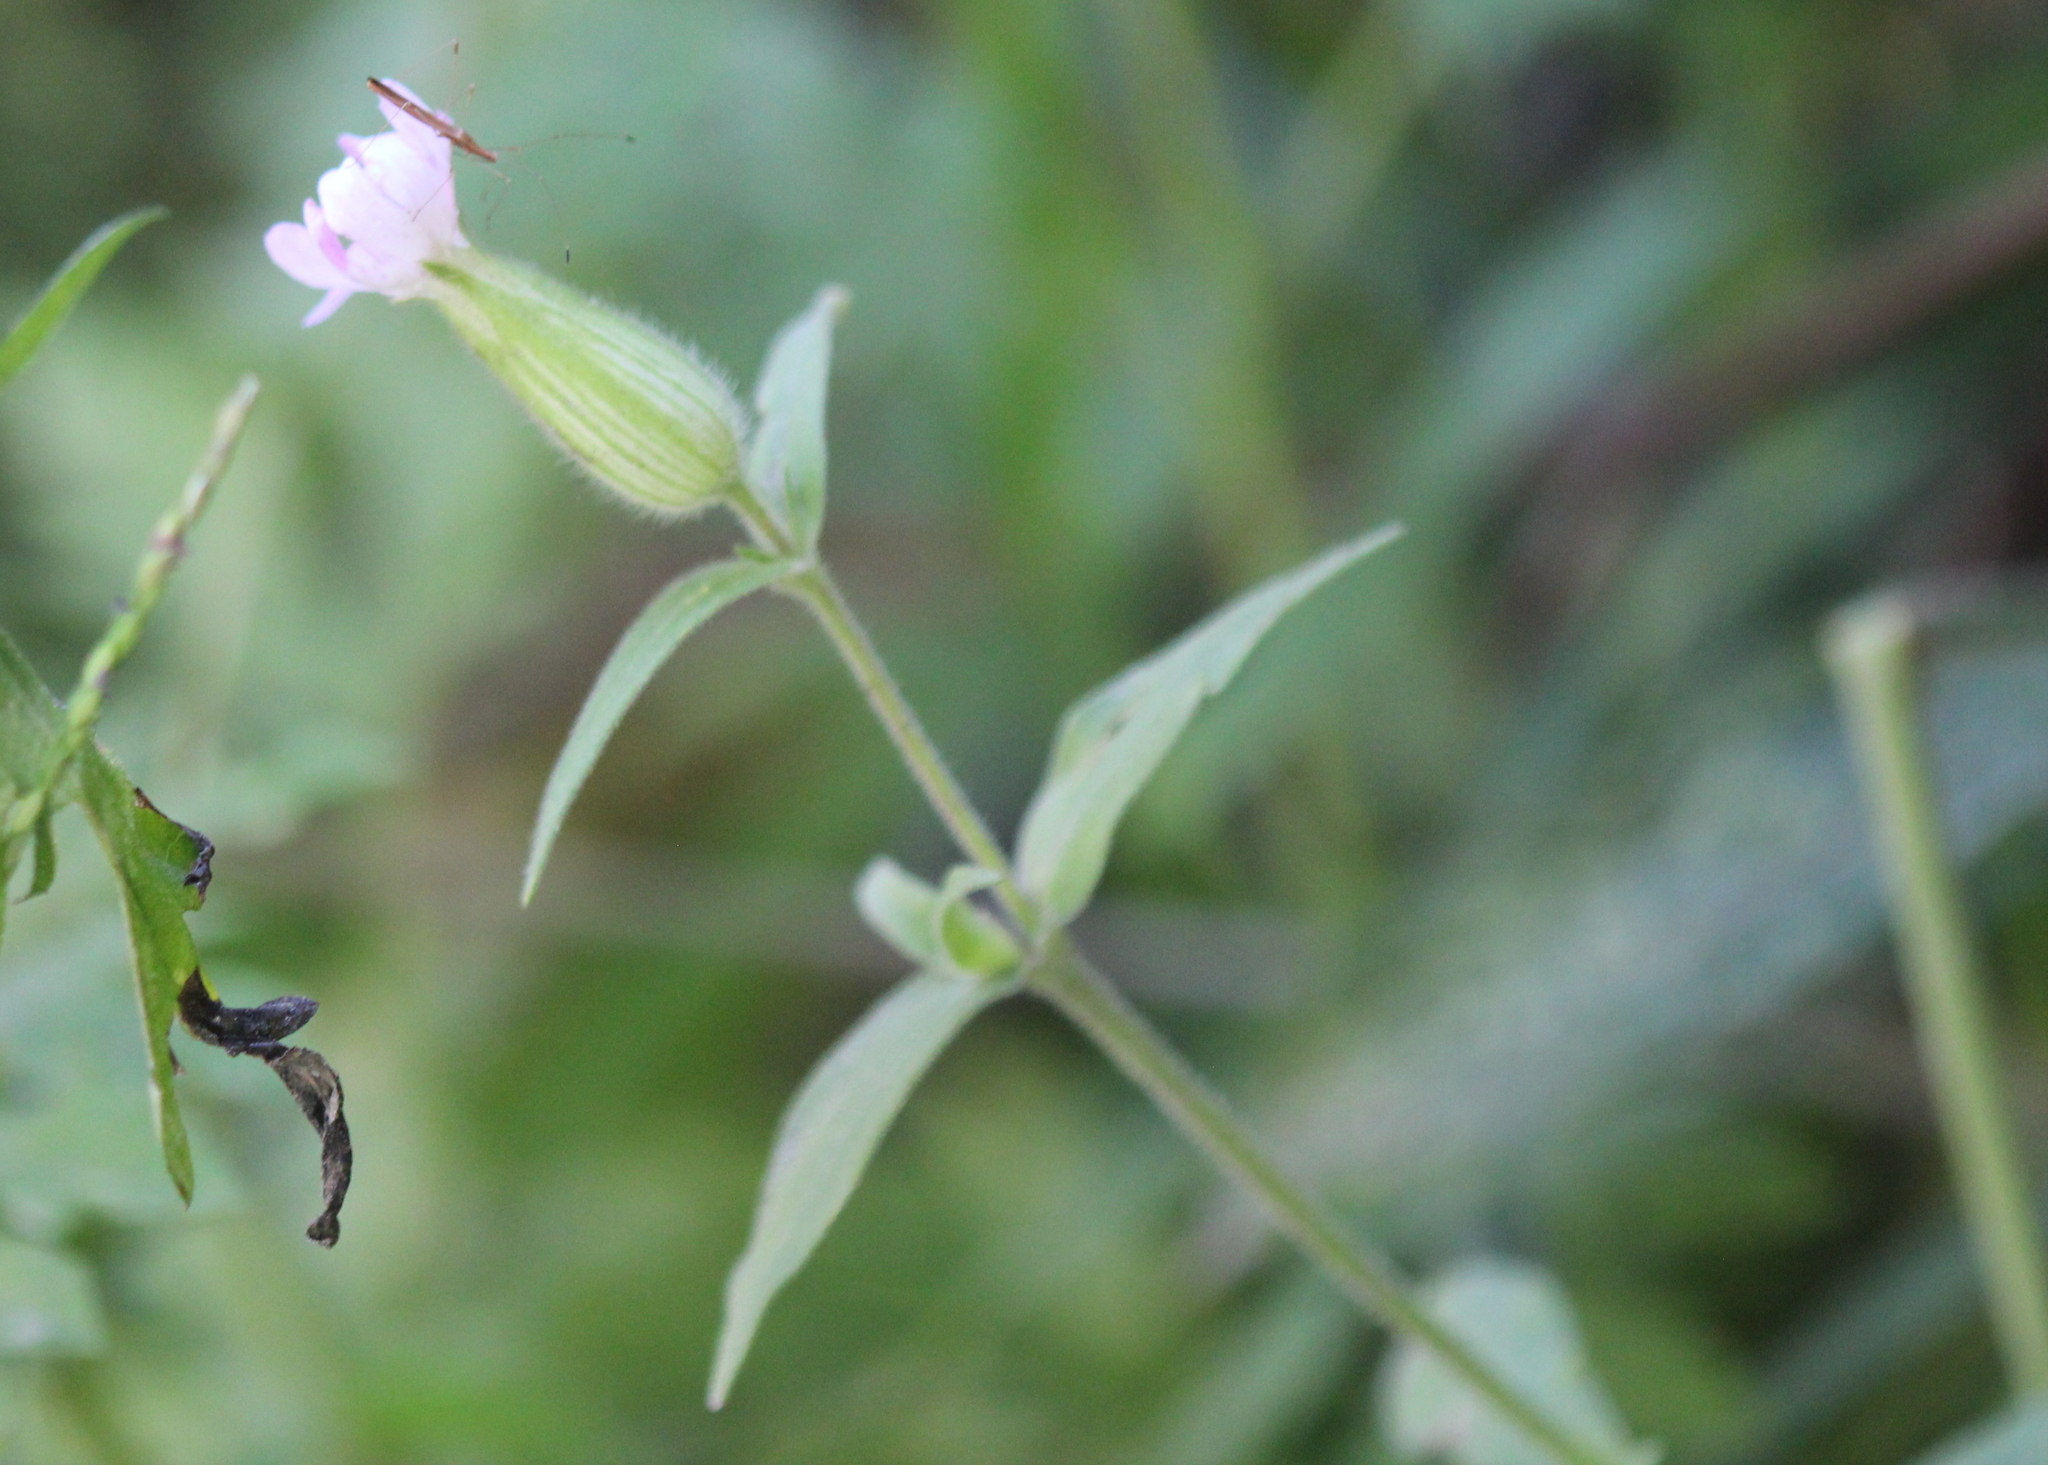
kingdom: Plantae
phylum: Tracheophyta
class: Magnoliopsida
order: Caryophyllales
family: Caryophyllaceae
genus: Silene
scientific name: Silene latifolia
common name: White campion
